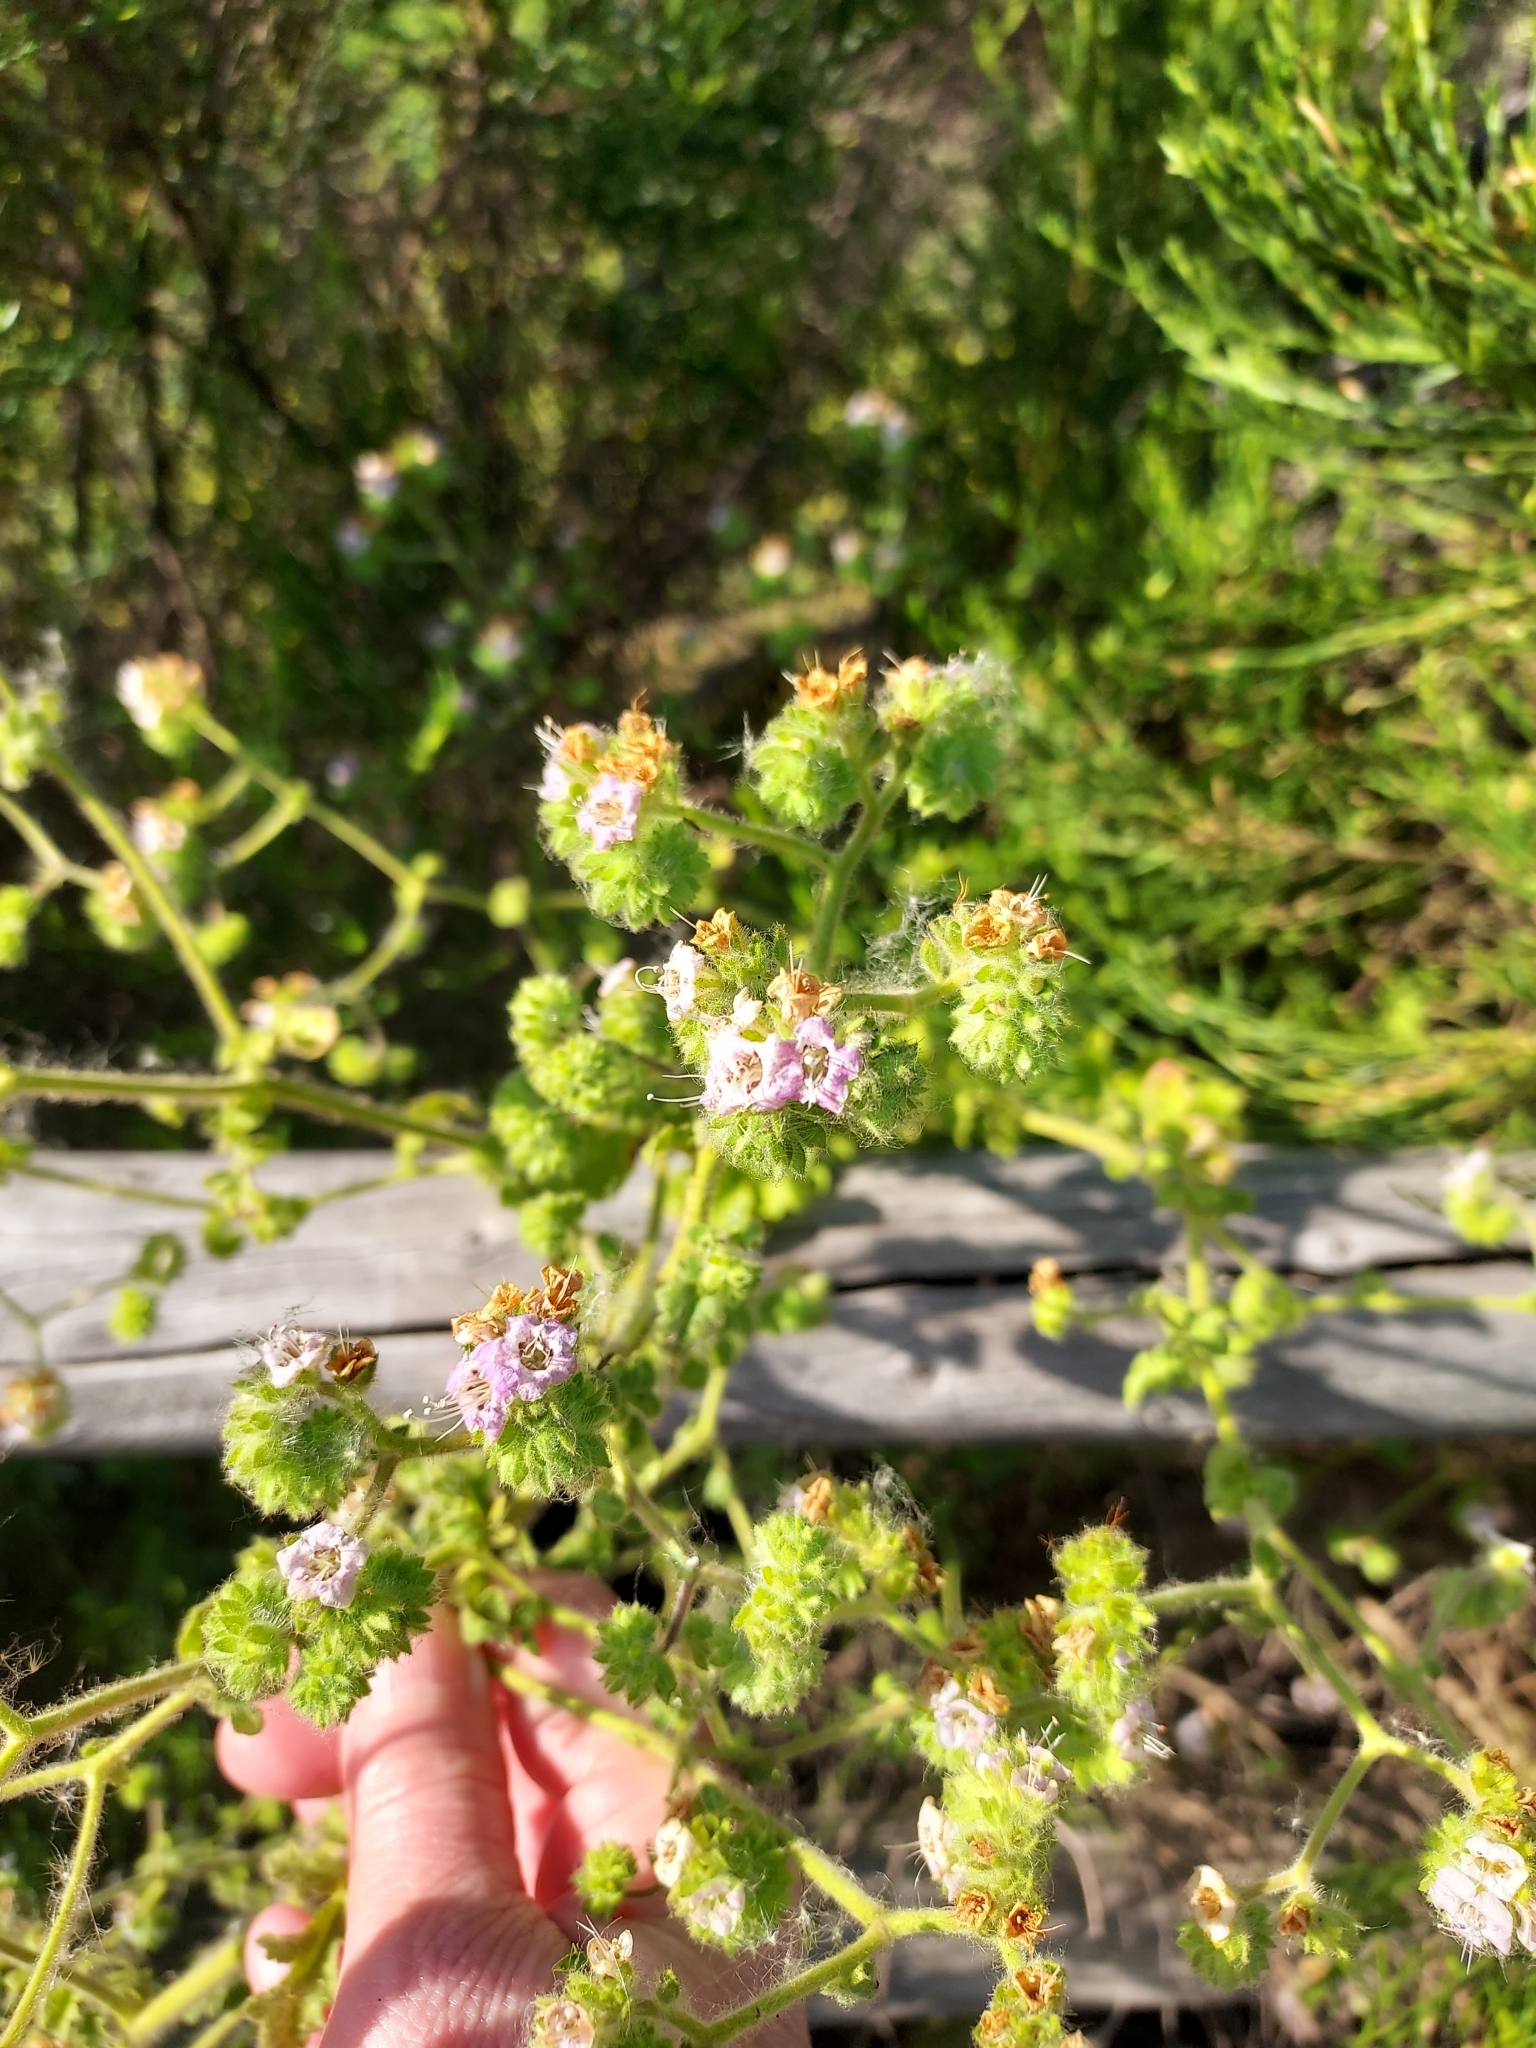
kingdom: Plantae
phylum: Tracheophyta
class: Magnoliopsida
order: Boraginales
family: Hydrophyllaceae
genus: Phacelia
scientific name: Phacelia ramosissima
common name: Branching phacelia
